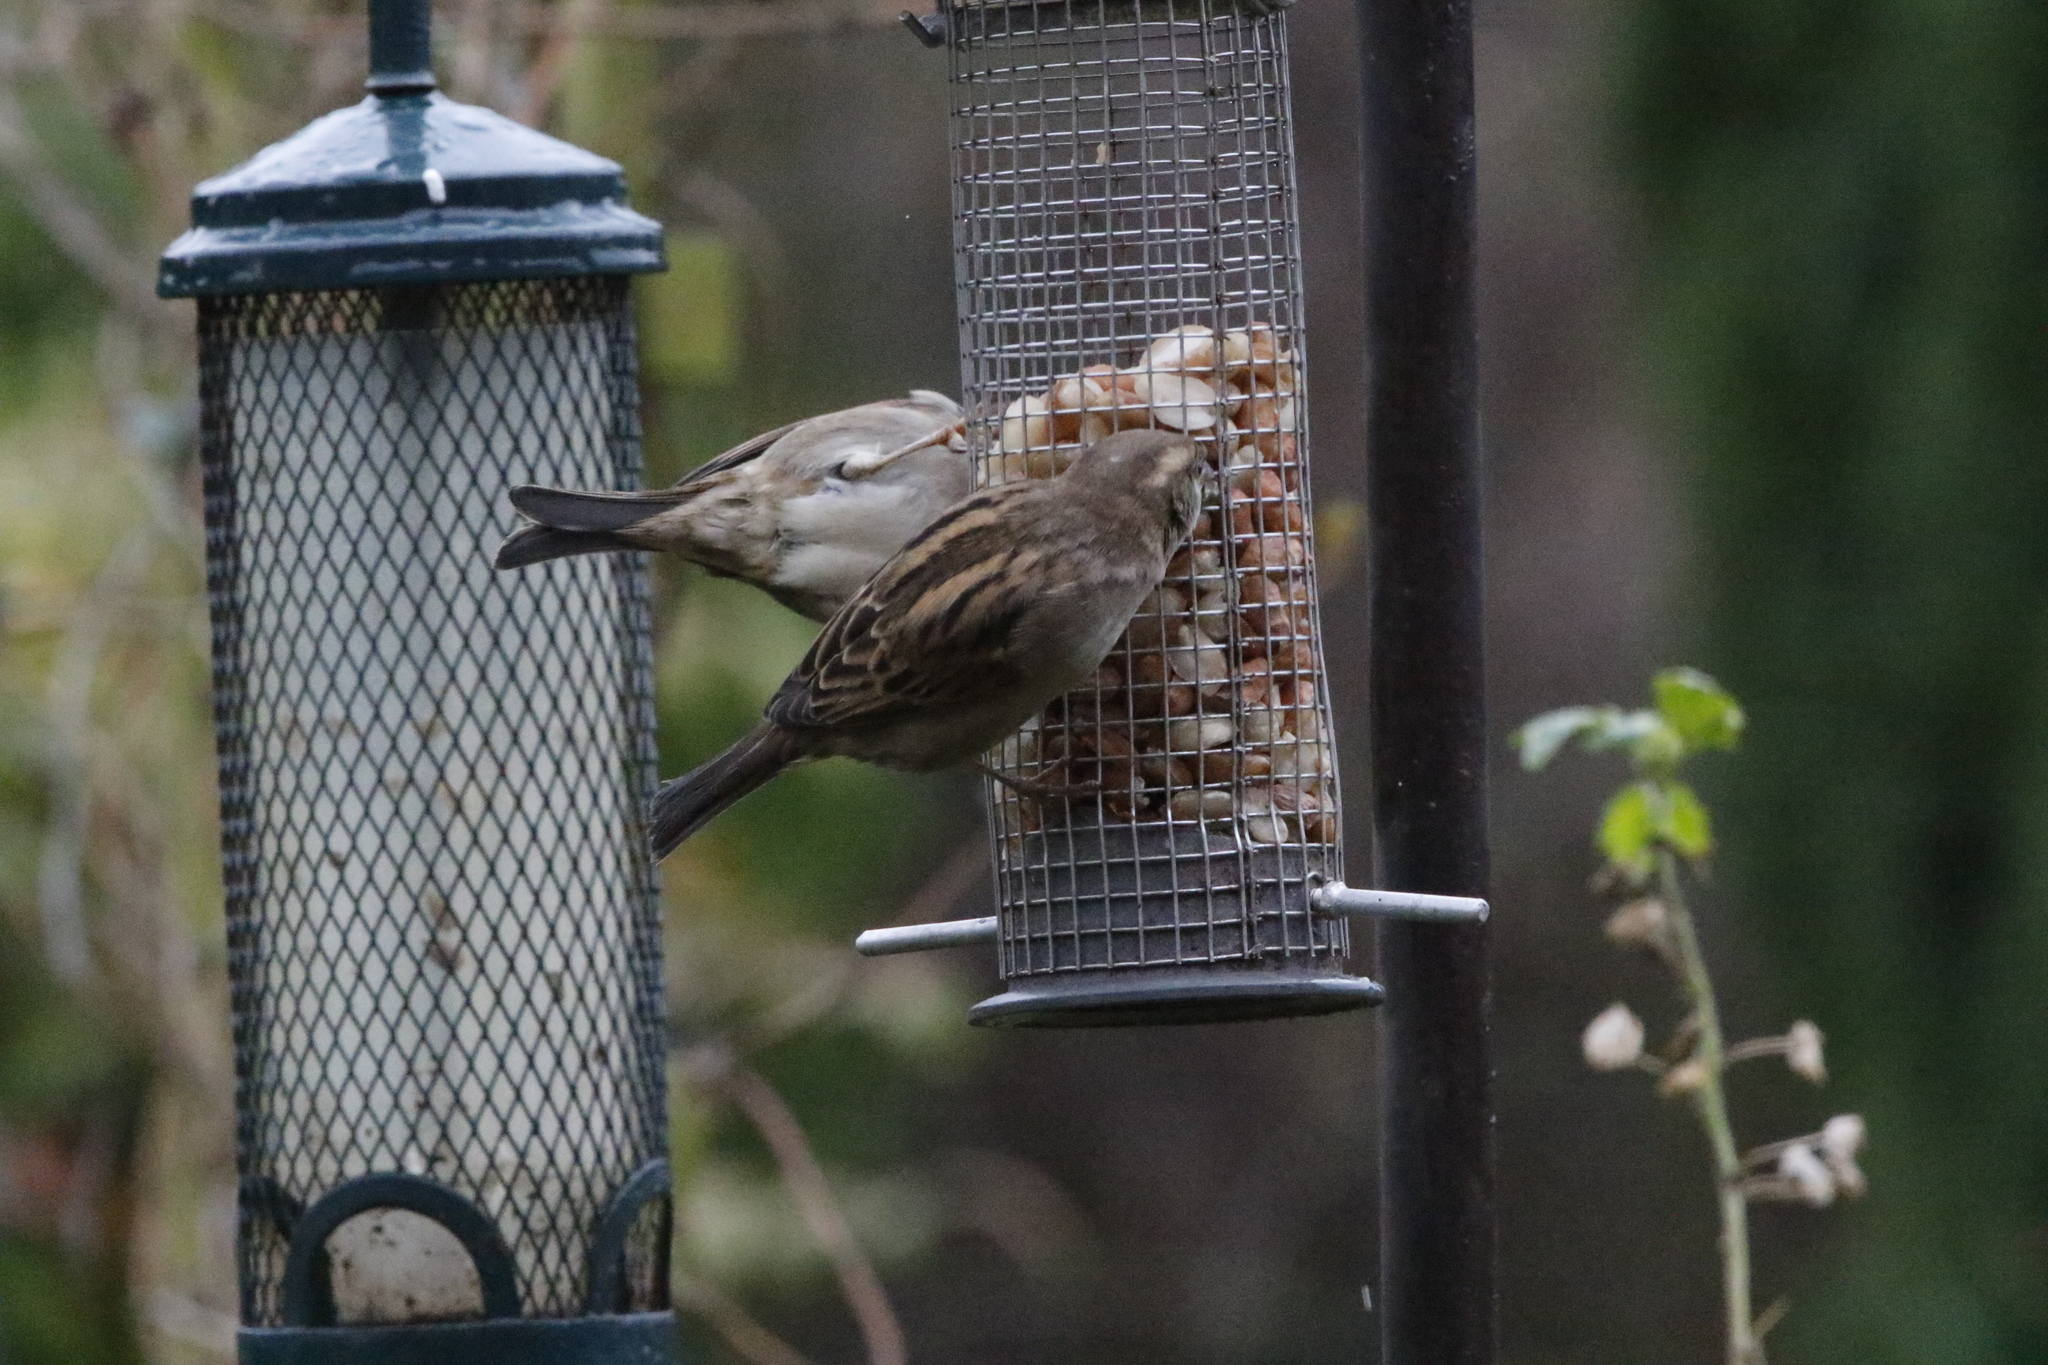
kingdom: Animalia
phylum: Chordata
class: Aves
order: Passeriformes
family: Passeridae
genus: Passer
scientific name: Passer domesticus
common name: House sparrow
